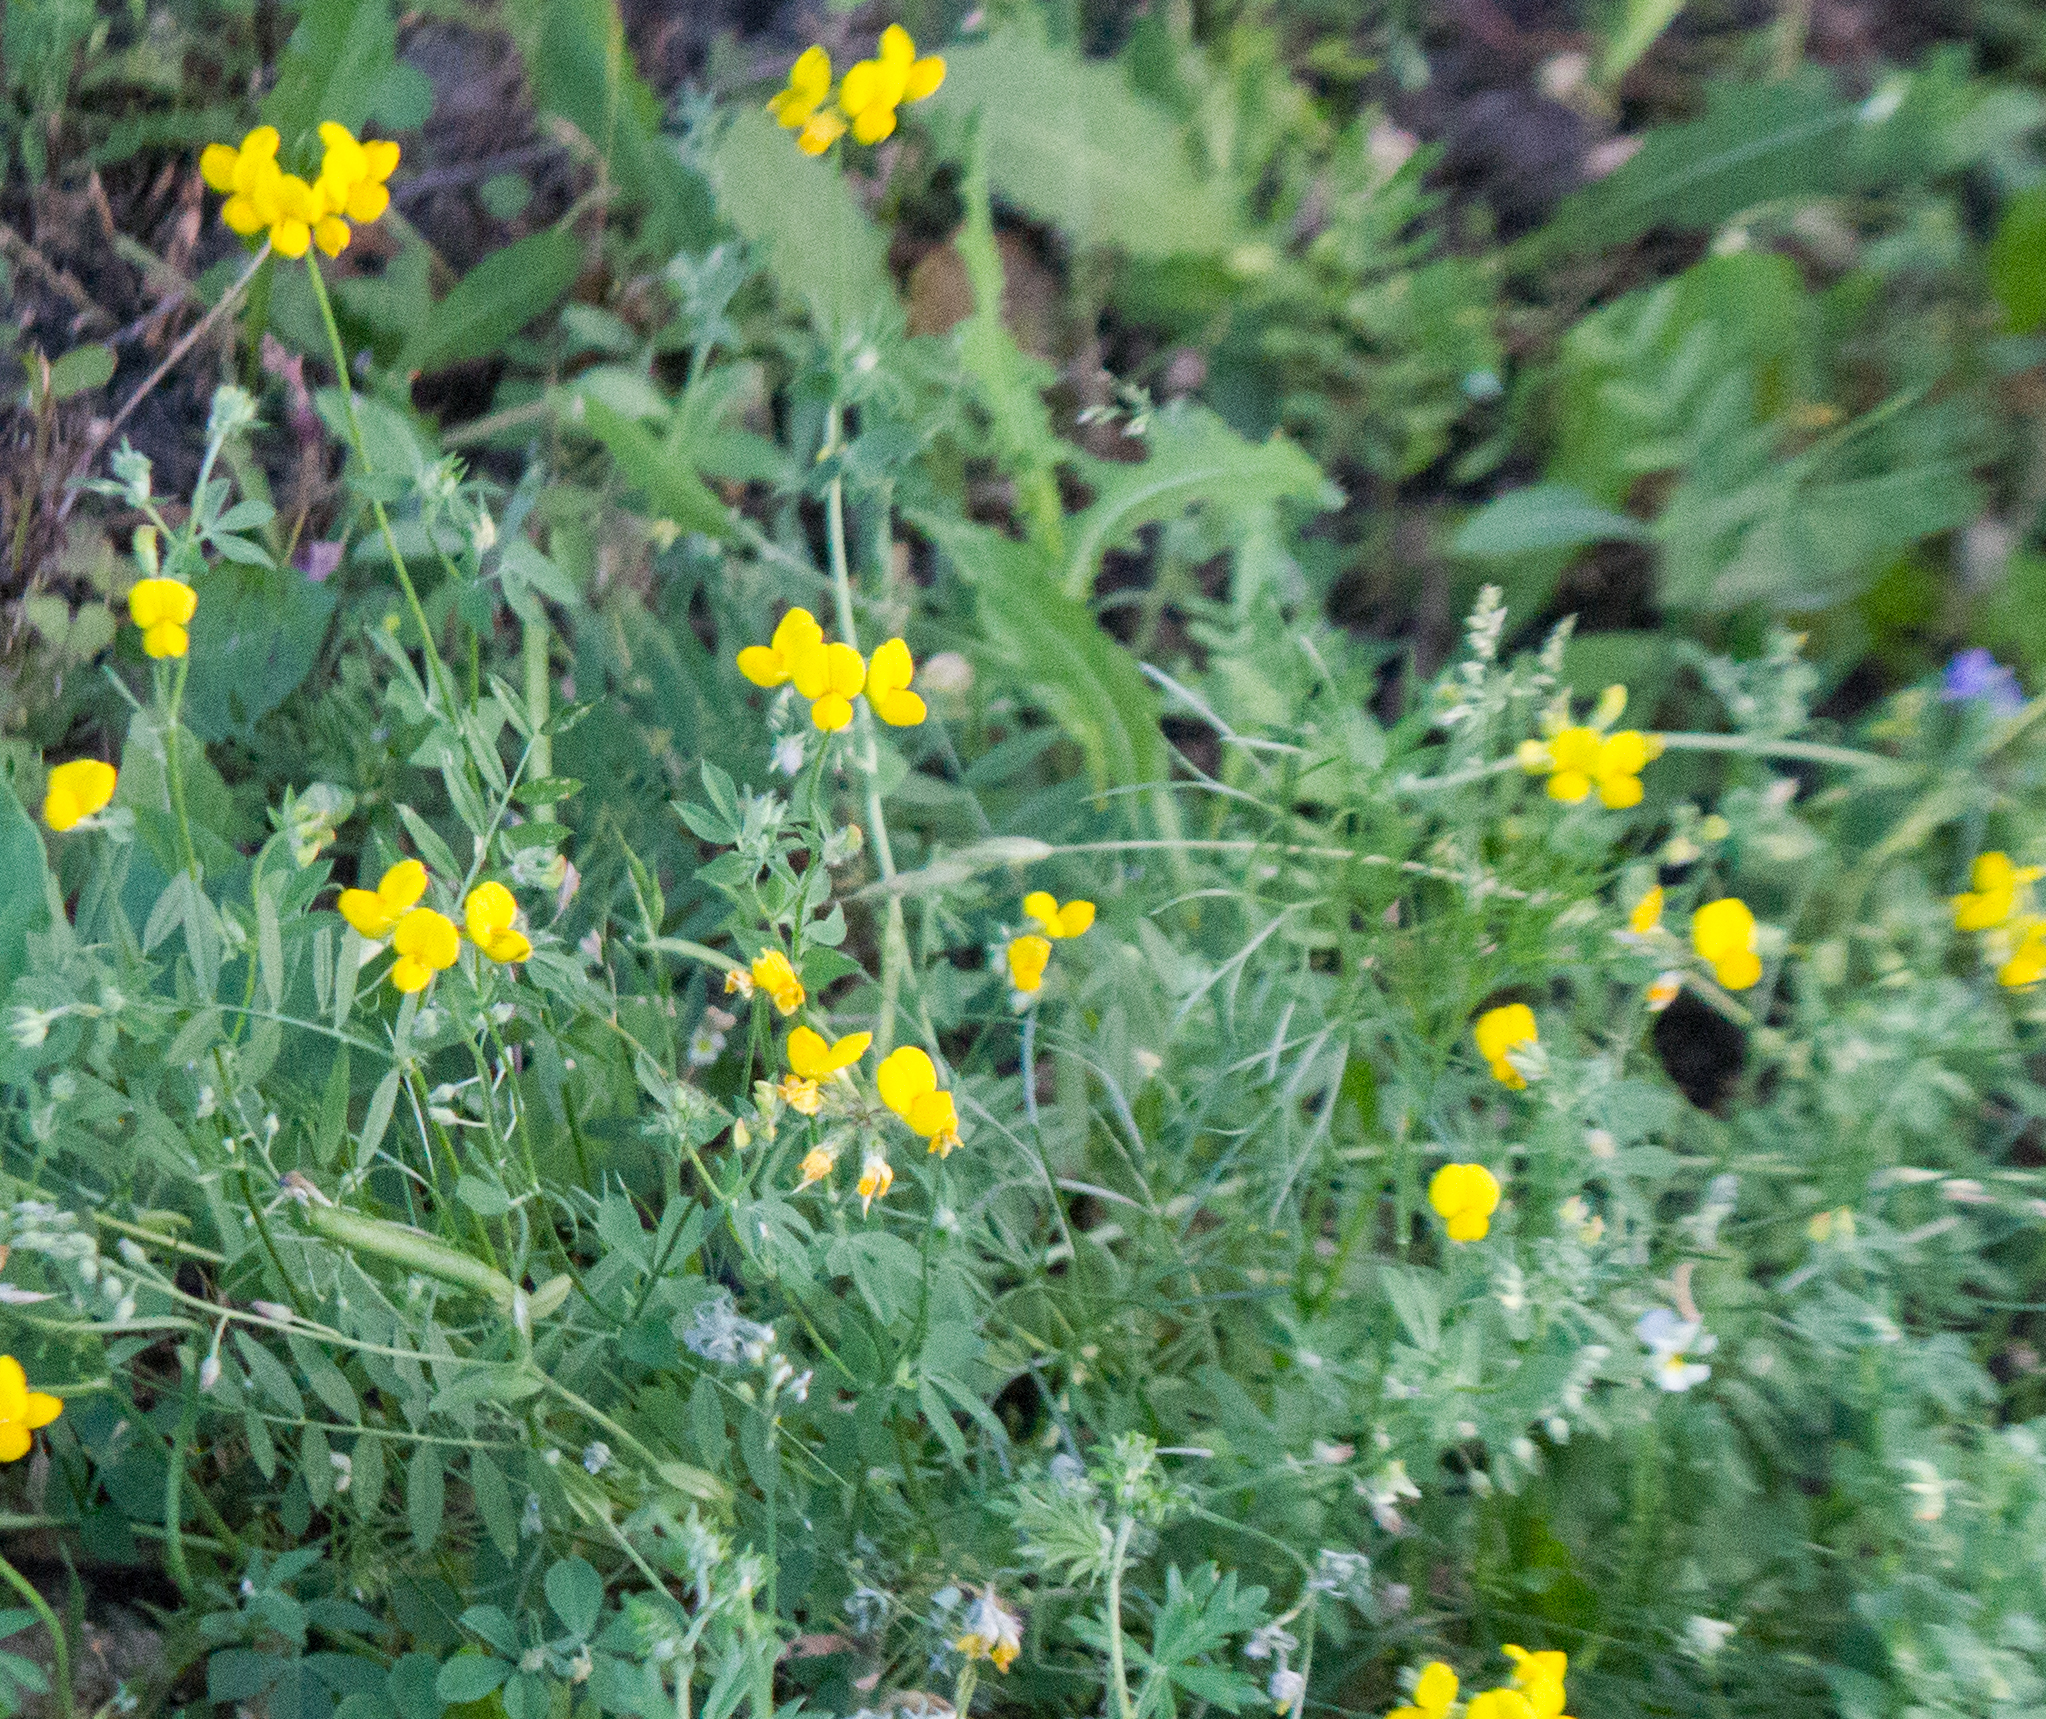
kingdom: Plantae
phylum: Tracheophyta
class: Magnoliopsida
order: Fabales
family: Fabaceae
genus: Lotus
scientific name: Lotus corniculatus
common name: Common bird's-foot-trefoil
